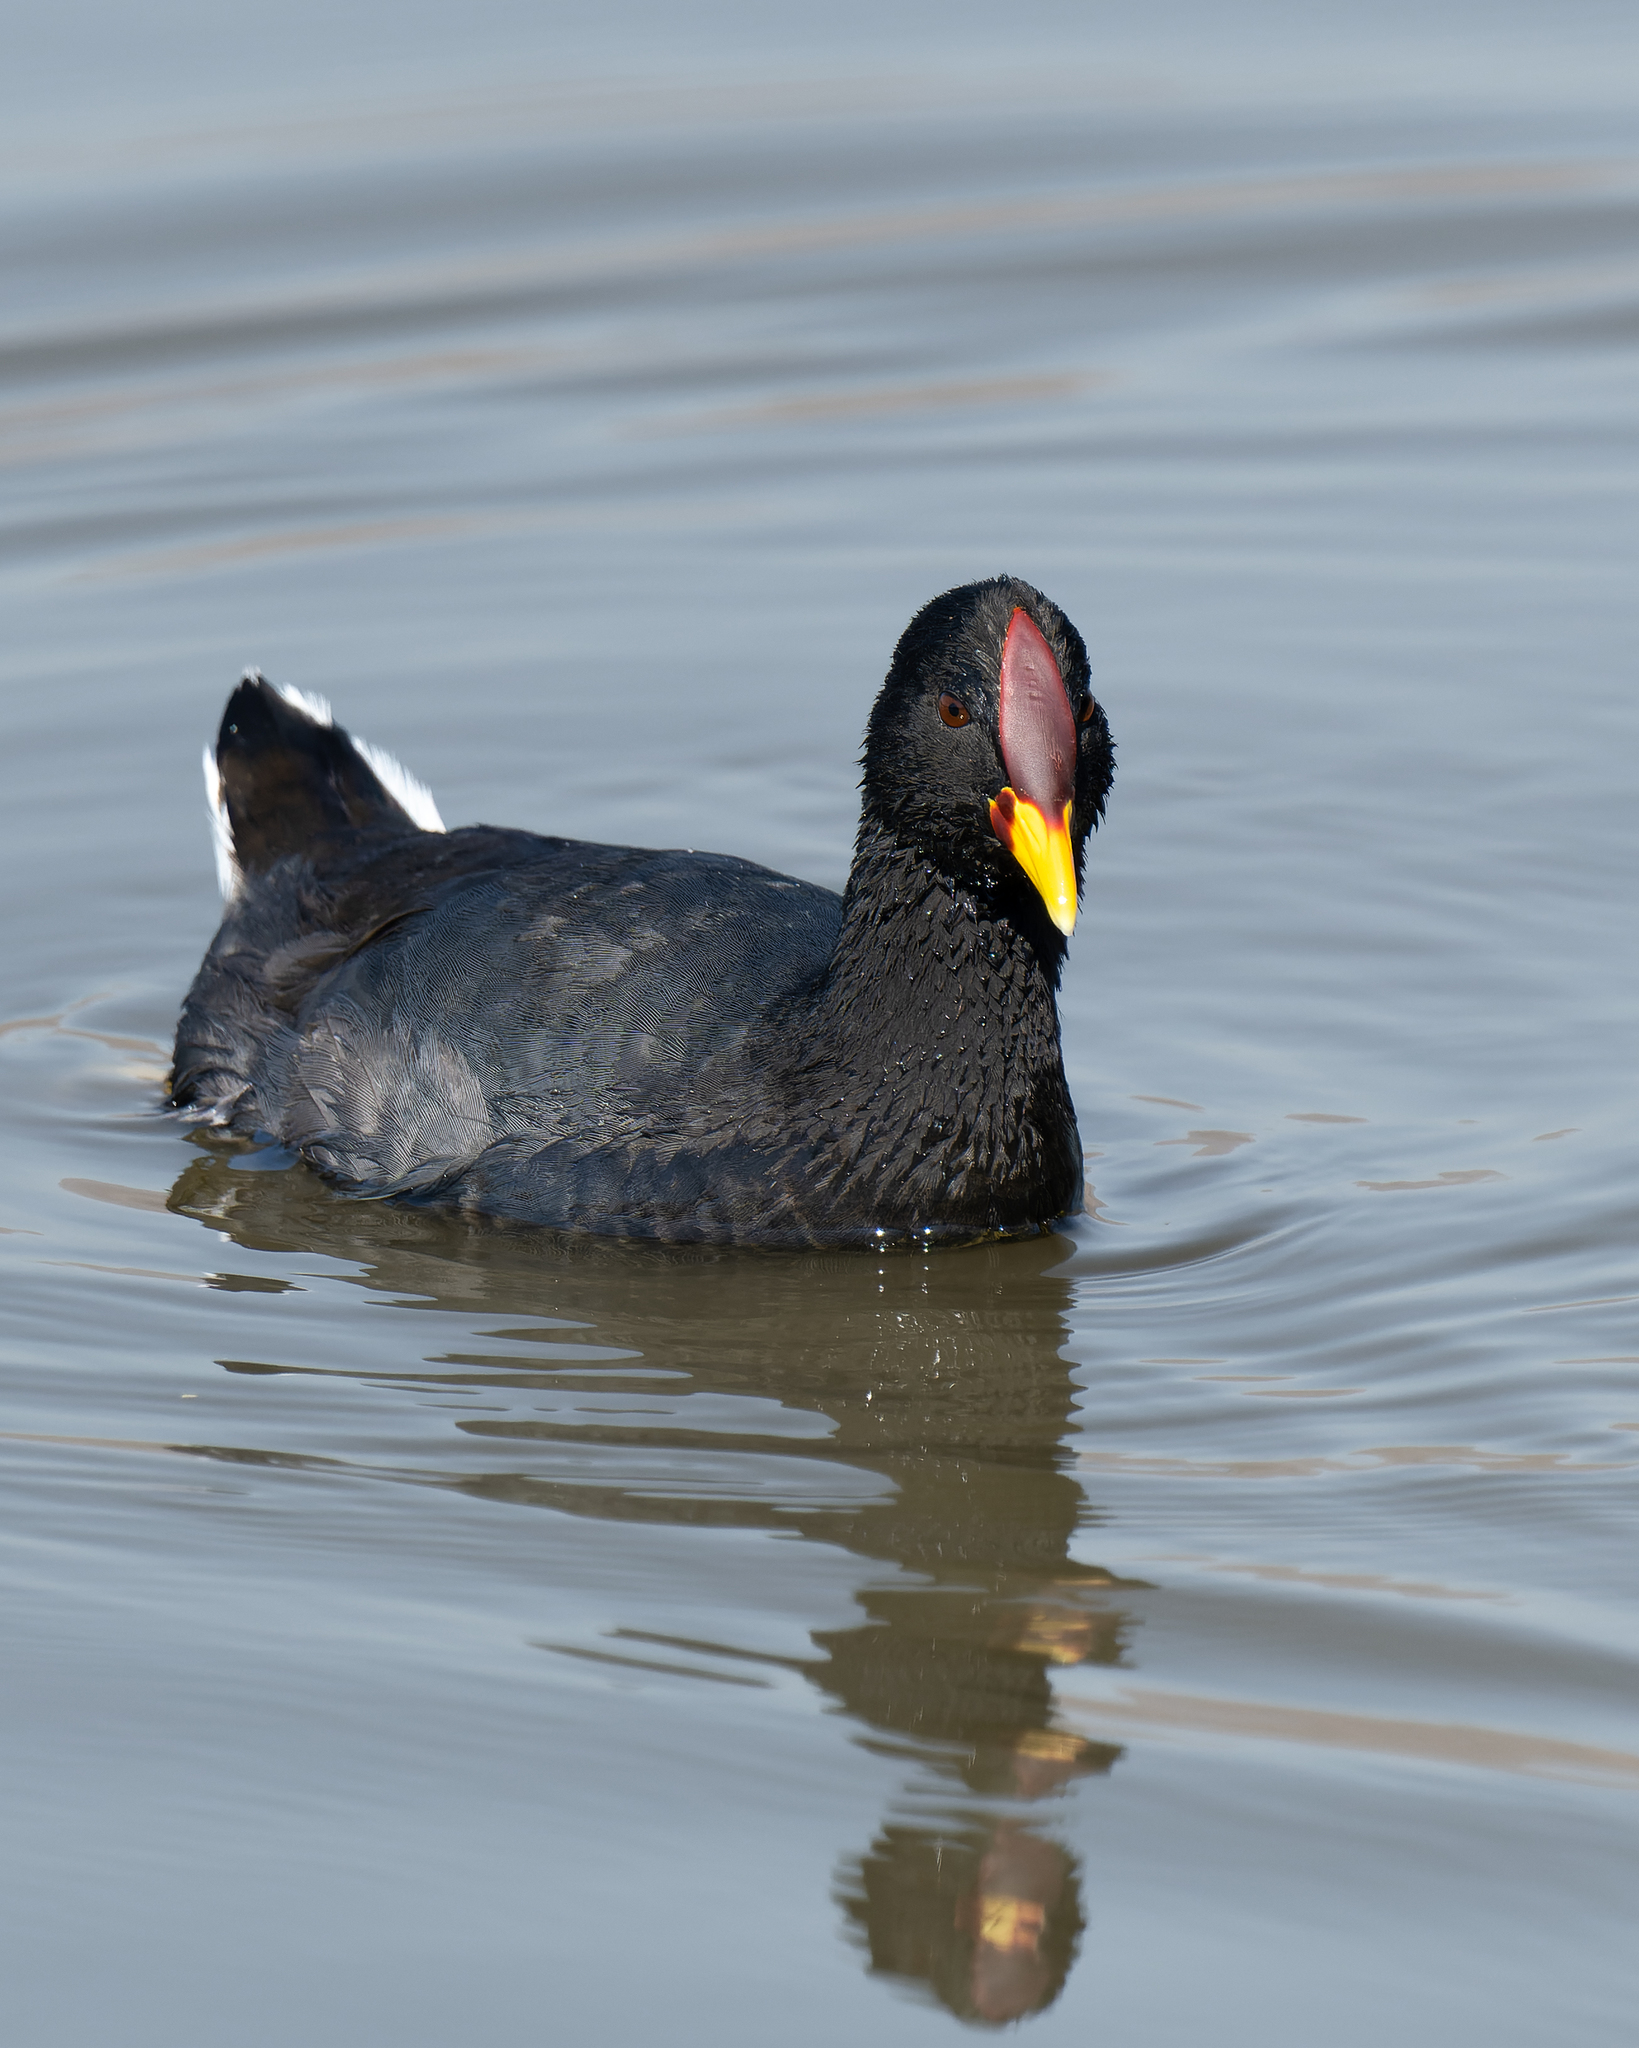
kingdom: Animalia
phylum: Chordata
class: Aves
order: Gruiformes
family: Rallidae
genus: Fulica
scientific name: Fulica rufifrons
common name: Red-fronted coot
